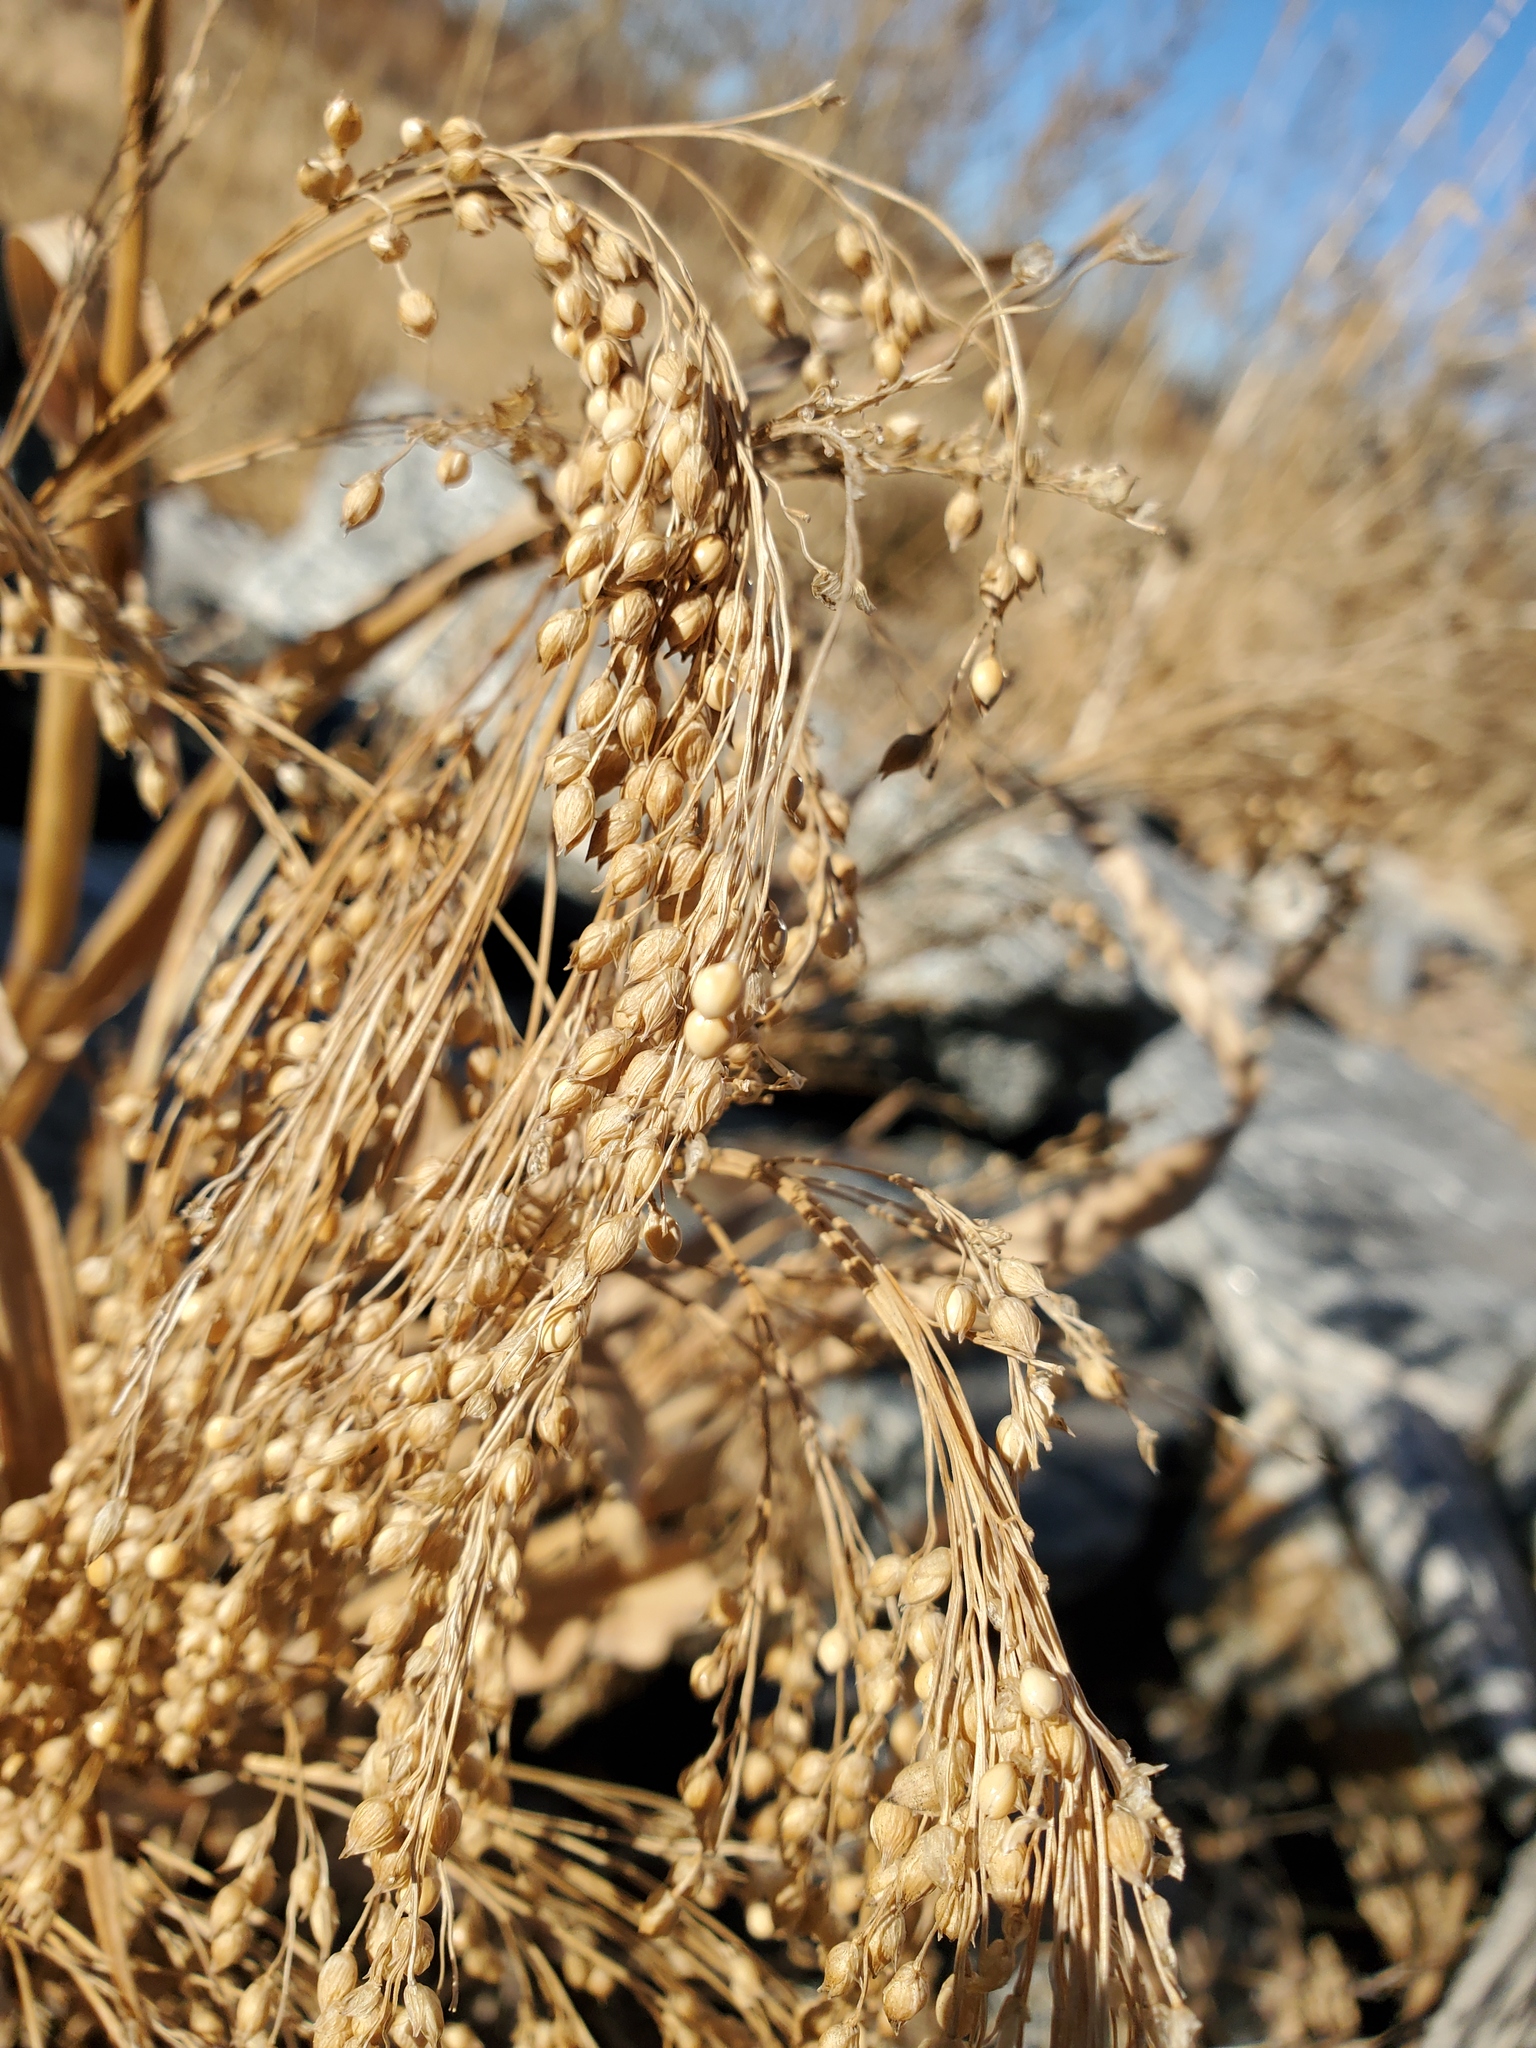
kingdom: Plantae
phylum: Tracheophyta
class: Liliopsida
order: Poales
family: Poaceae
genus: Panicum
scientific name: Panicum miliaceum
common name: Common millet
